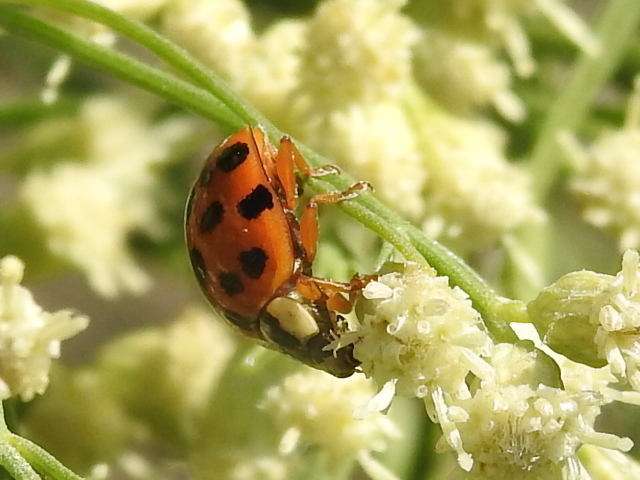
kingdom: Animalia
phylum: Arthropoda
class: Insecta
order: Coleoptera
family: Coccinellidae
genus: Harmonia
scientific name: Harmonia axyridis
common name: Harlequin ladybird
